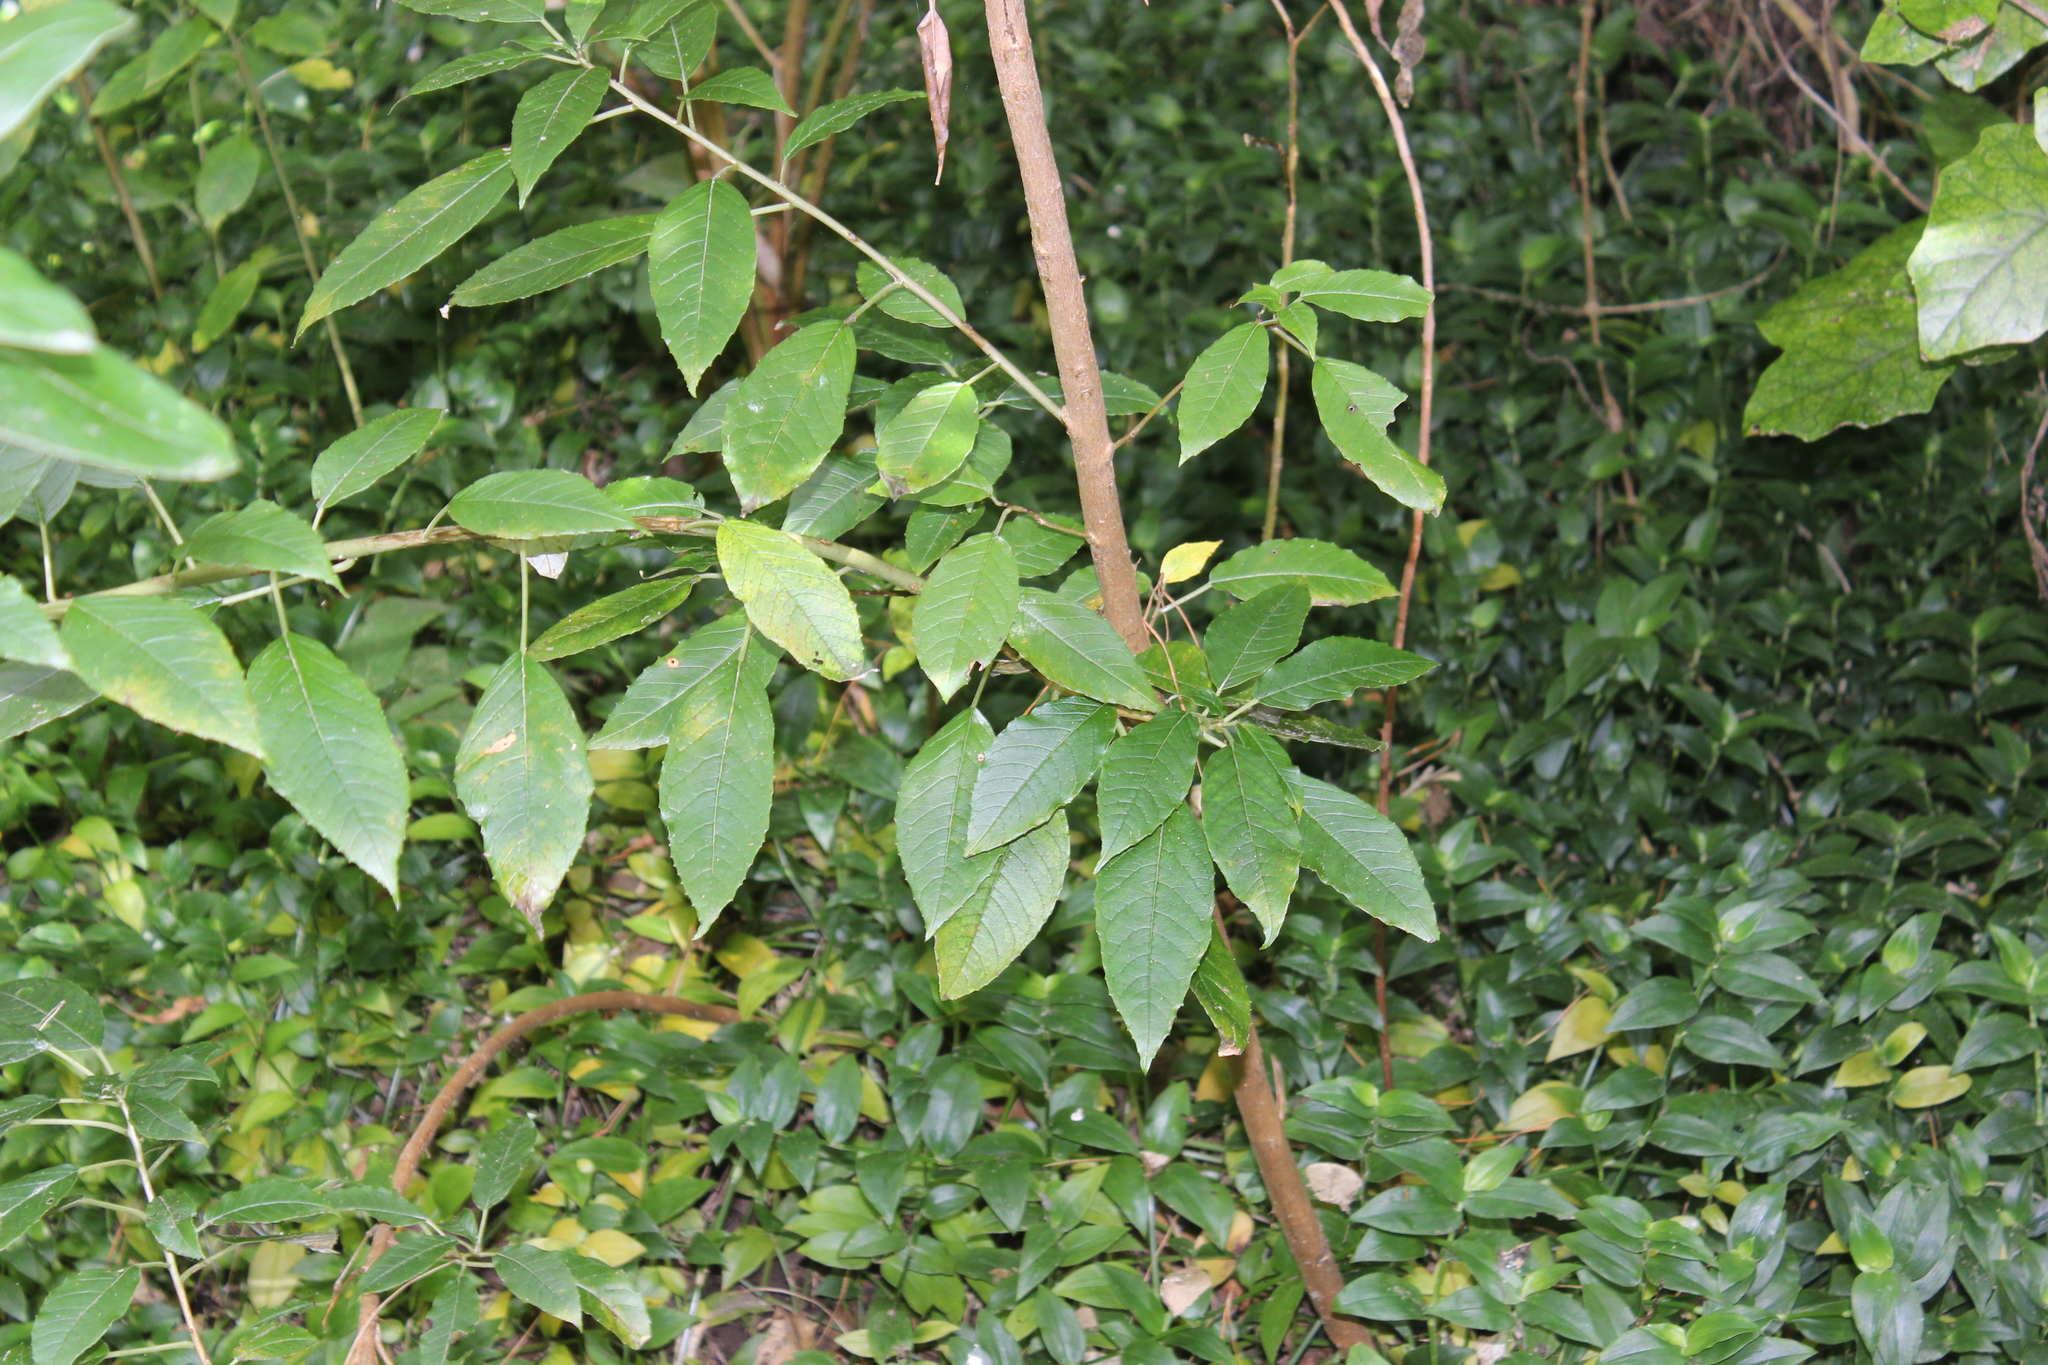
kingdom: Plantae
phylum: Tracheophyta
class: Magnoliopsida
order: Myrtales
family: Onagraceae
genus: Fuchsia
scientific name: Fuchsia excorticata
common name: Tree fuchsia
